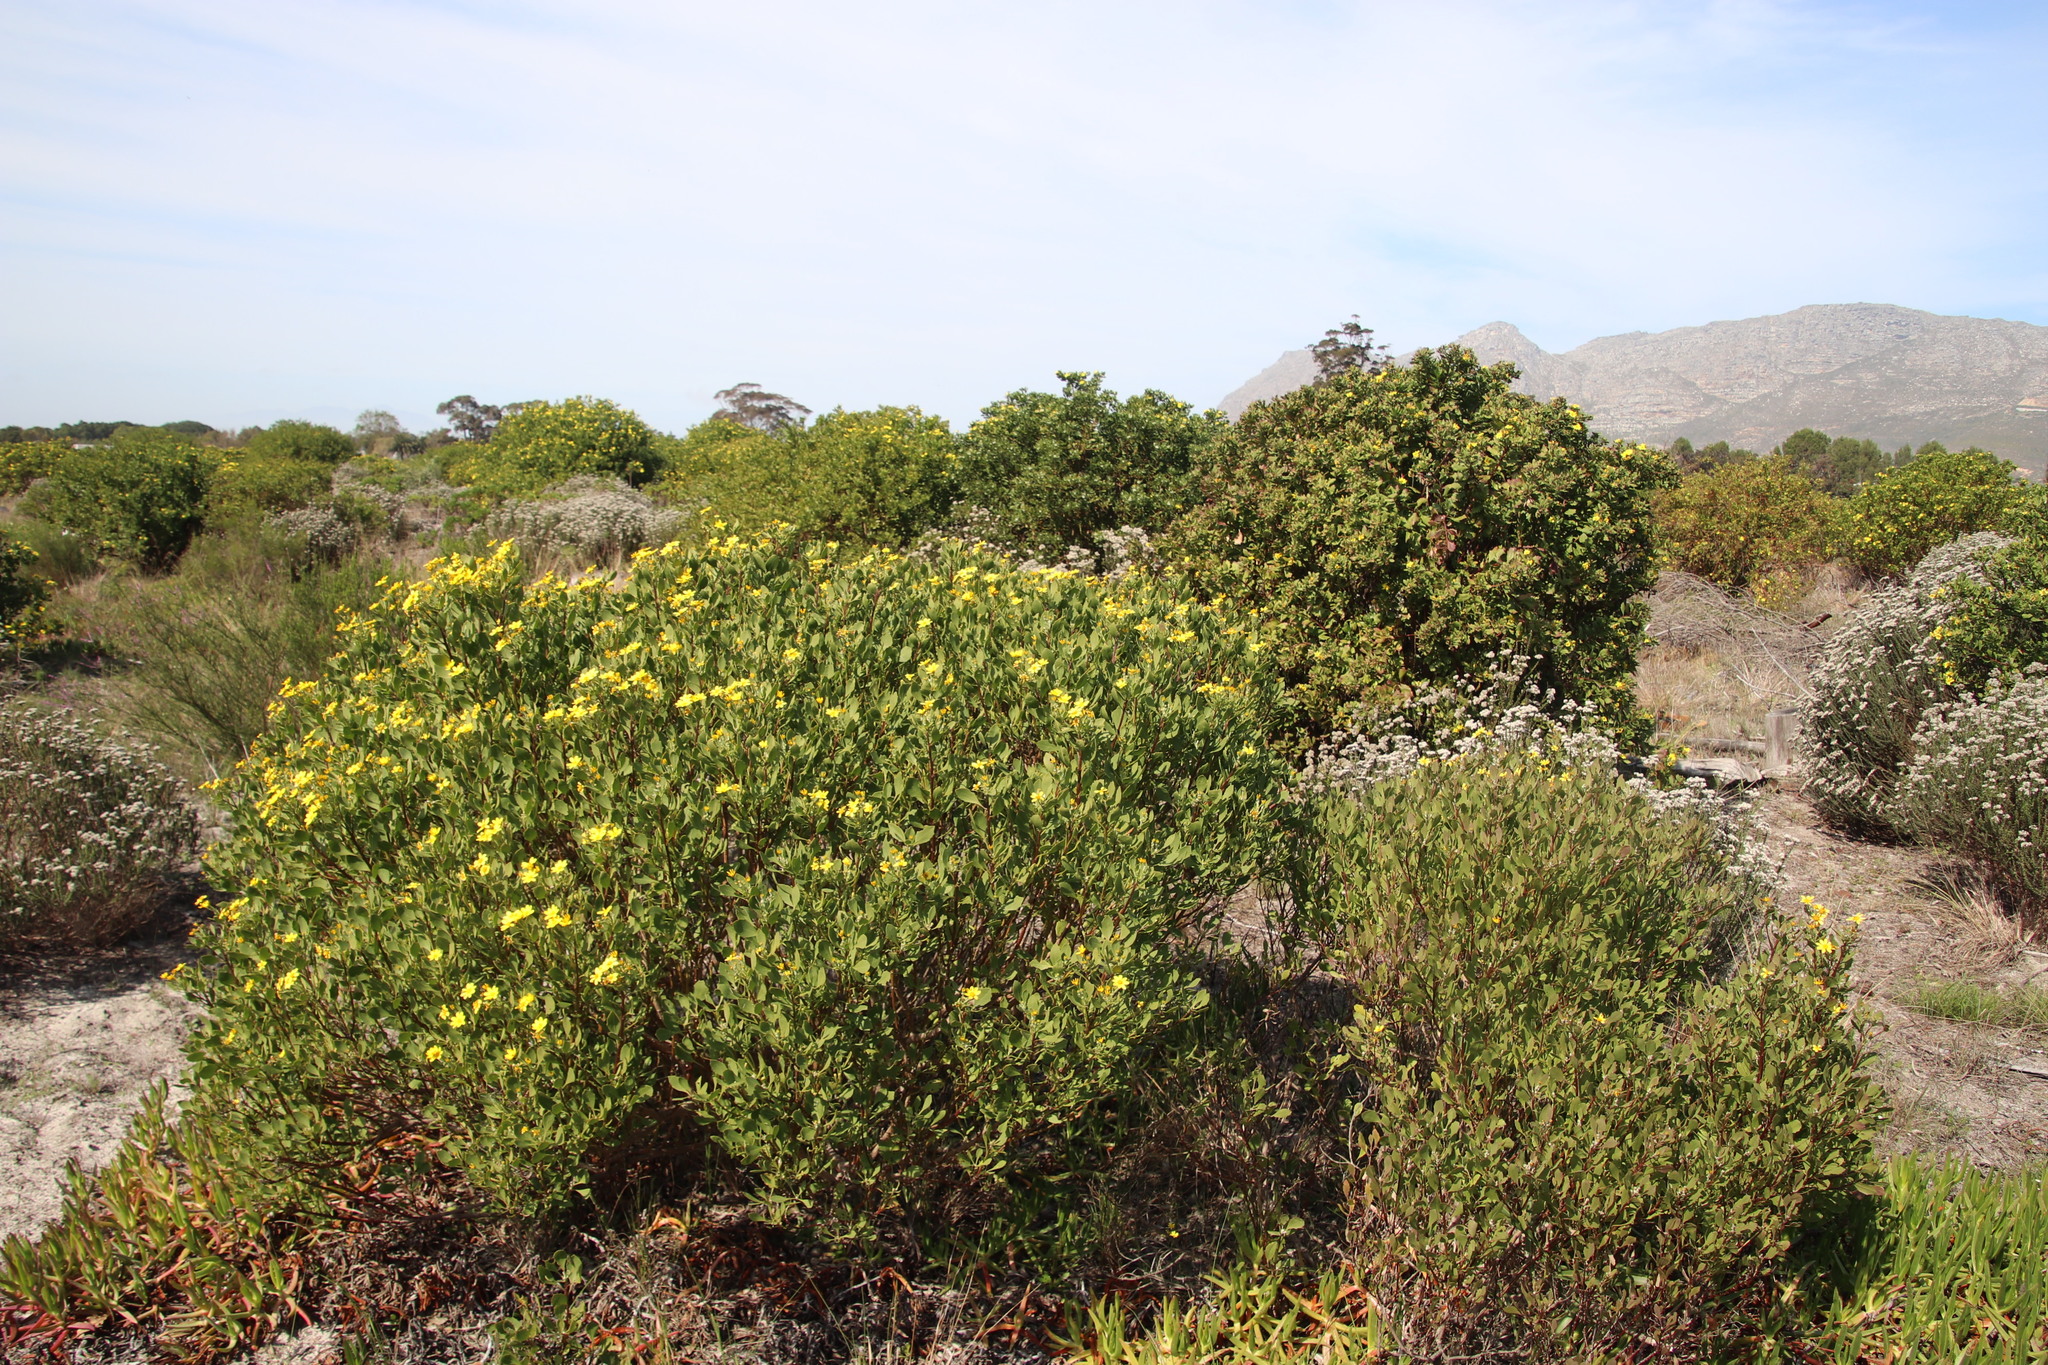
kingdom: Plantae
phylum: Tracheophyta
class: Magnoliopsida
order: Asterales
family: Asteraceae
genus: Osteospermum
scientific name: Osteospermum moniliferum
